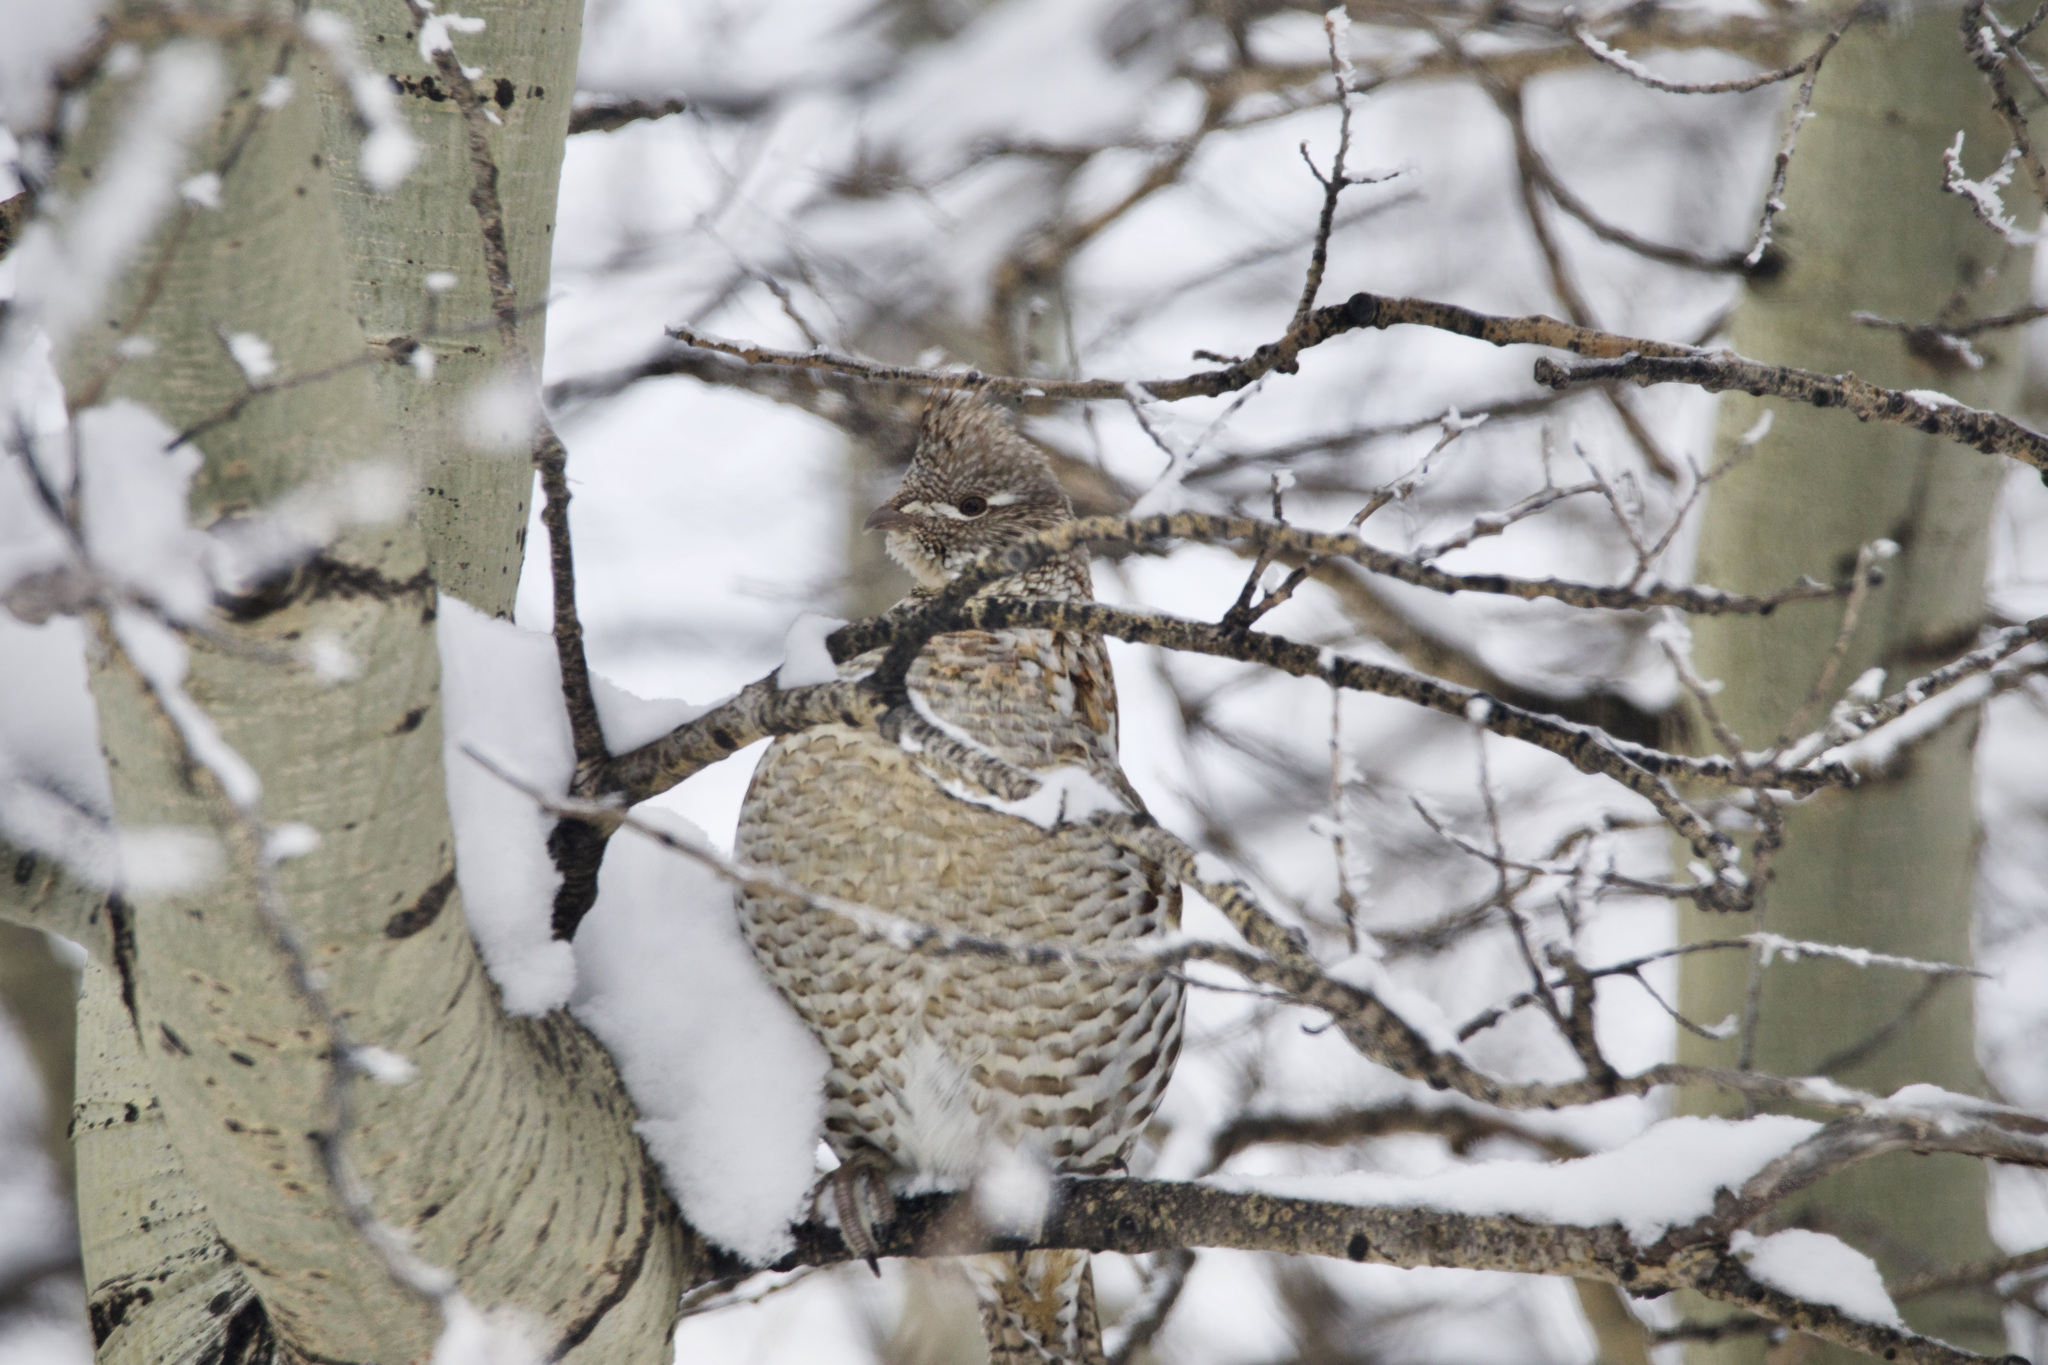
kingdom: Animalia
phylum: Chordata
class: Aves
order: Galliformes
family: Phasianidae
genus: Bonasa
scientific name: Bonasa umbellus
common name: Ruffed grouse
